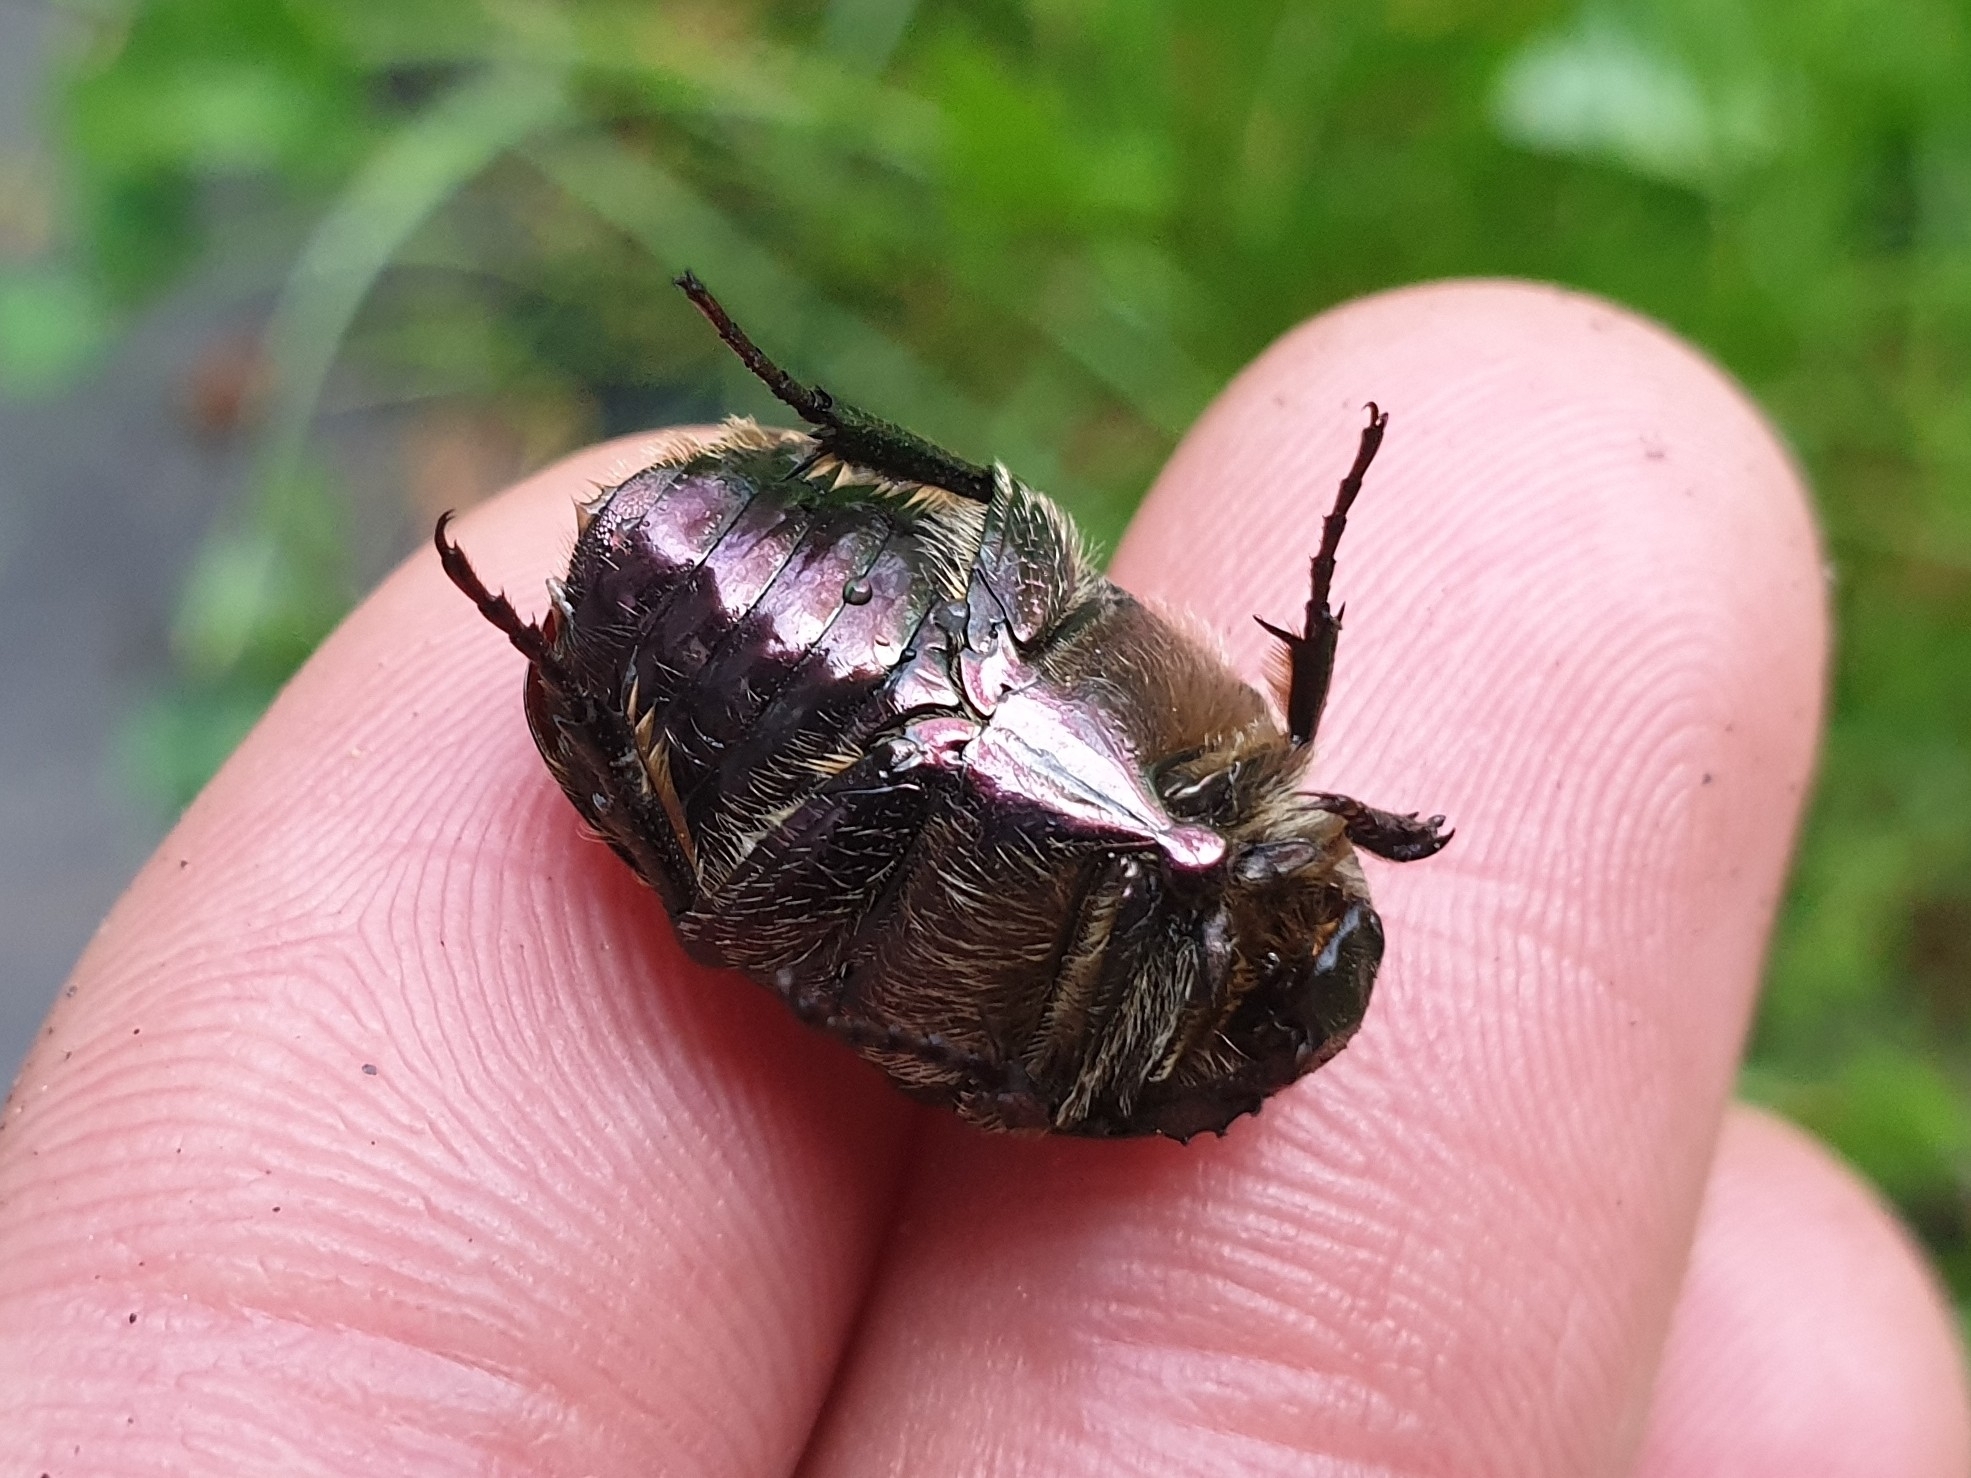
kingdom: Animalia
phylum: Arthropoda
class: Insecta
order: Coleoptera
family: Scarabaeidae
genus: Protaetia
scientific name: Protaetia cuprea
